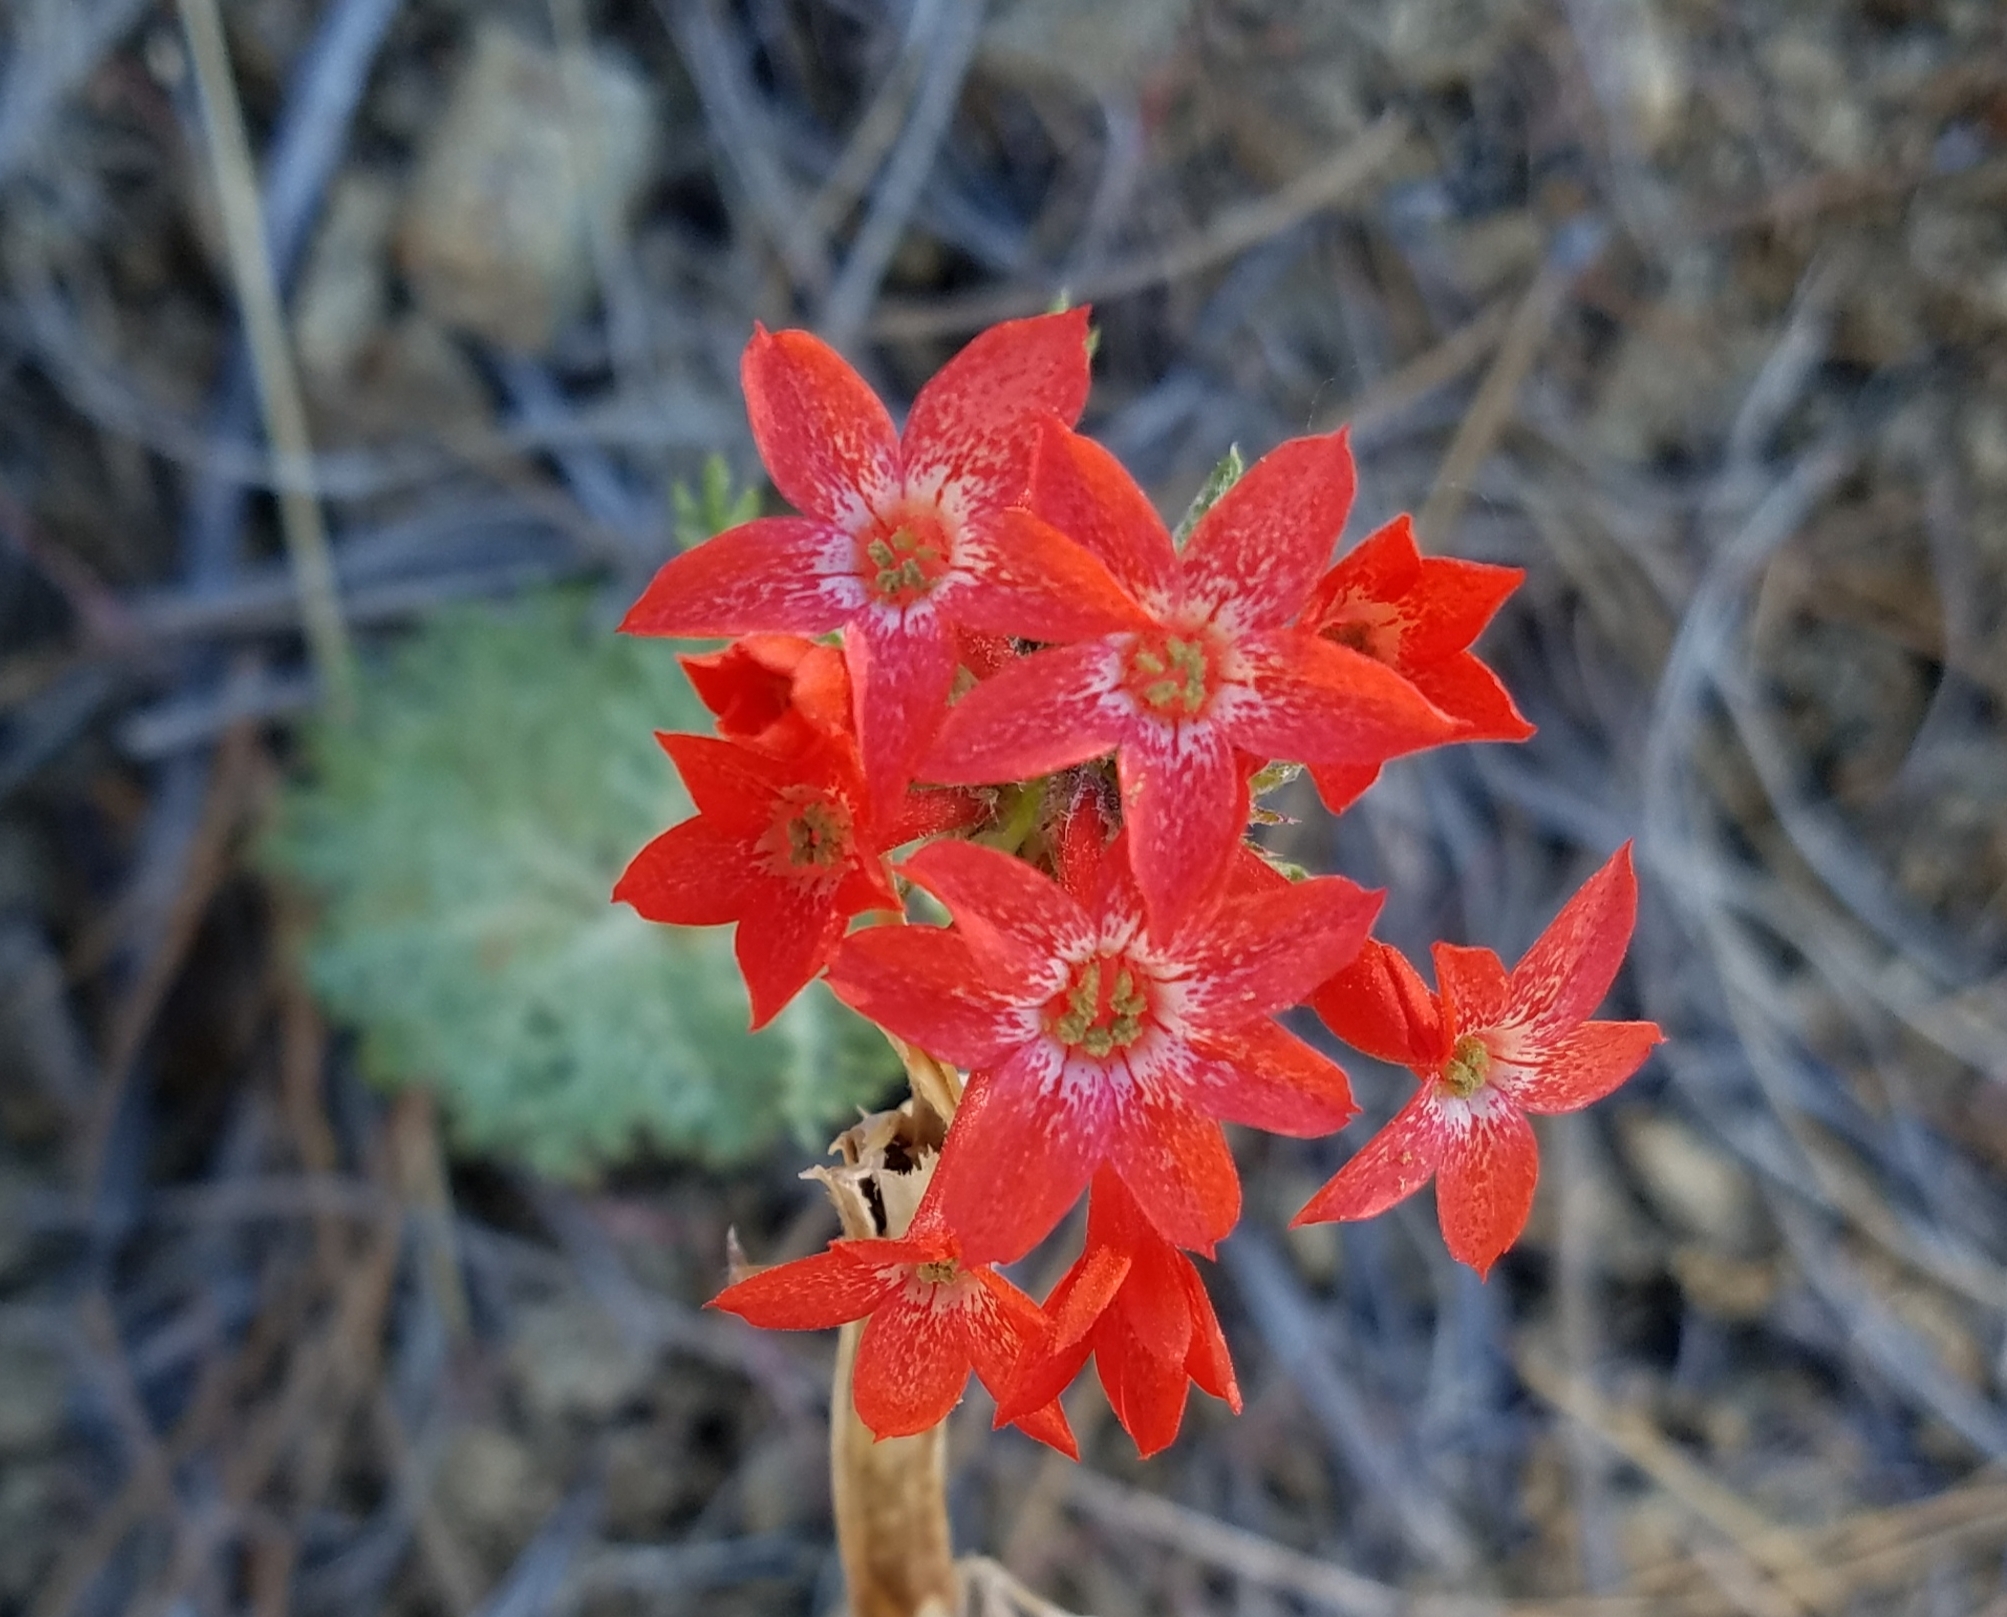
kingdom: Plantae
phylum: Tracheophyta
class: Magnoliopsida
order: Ericales
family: Polemoniaceae
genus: Ipomopsis
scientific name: Ipomopsis aggregata
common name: Scarlet gilia
